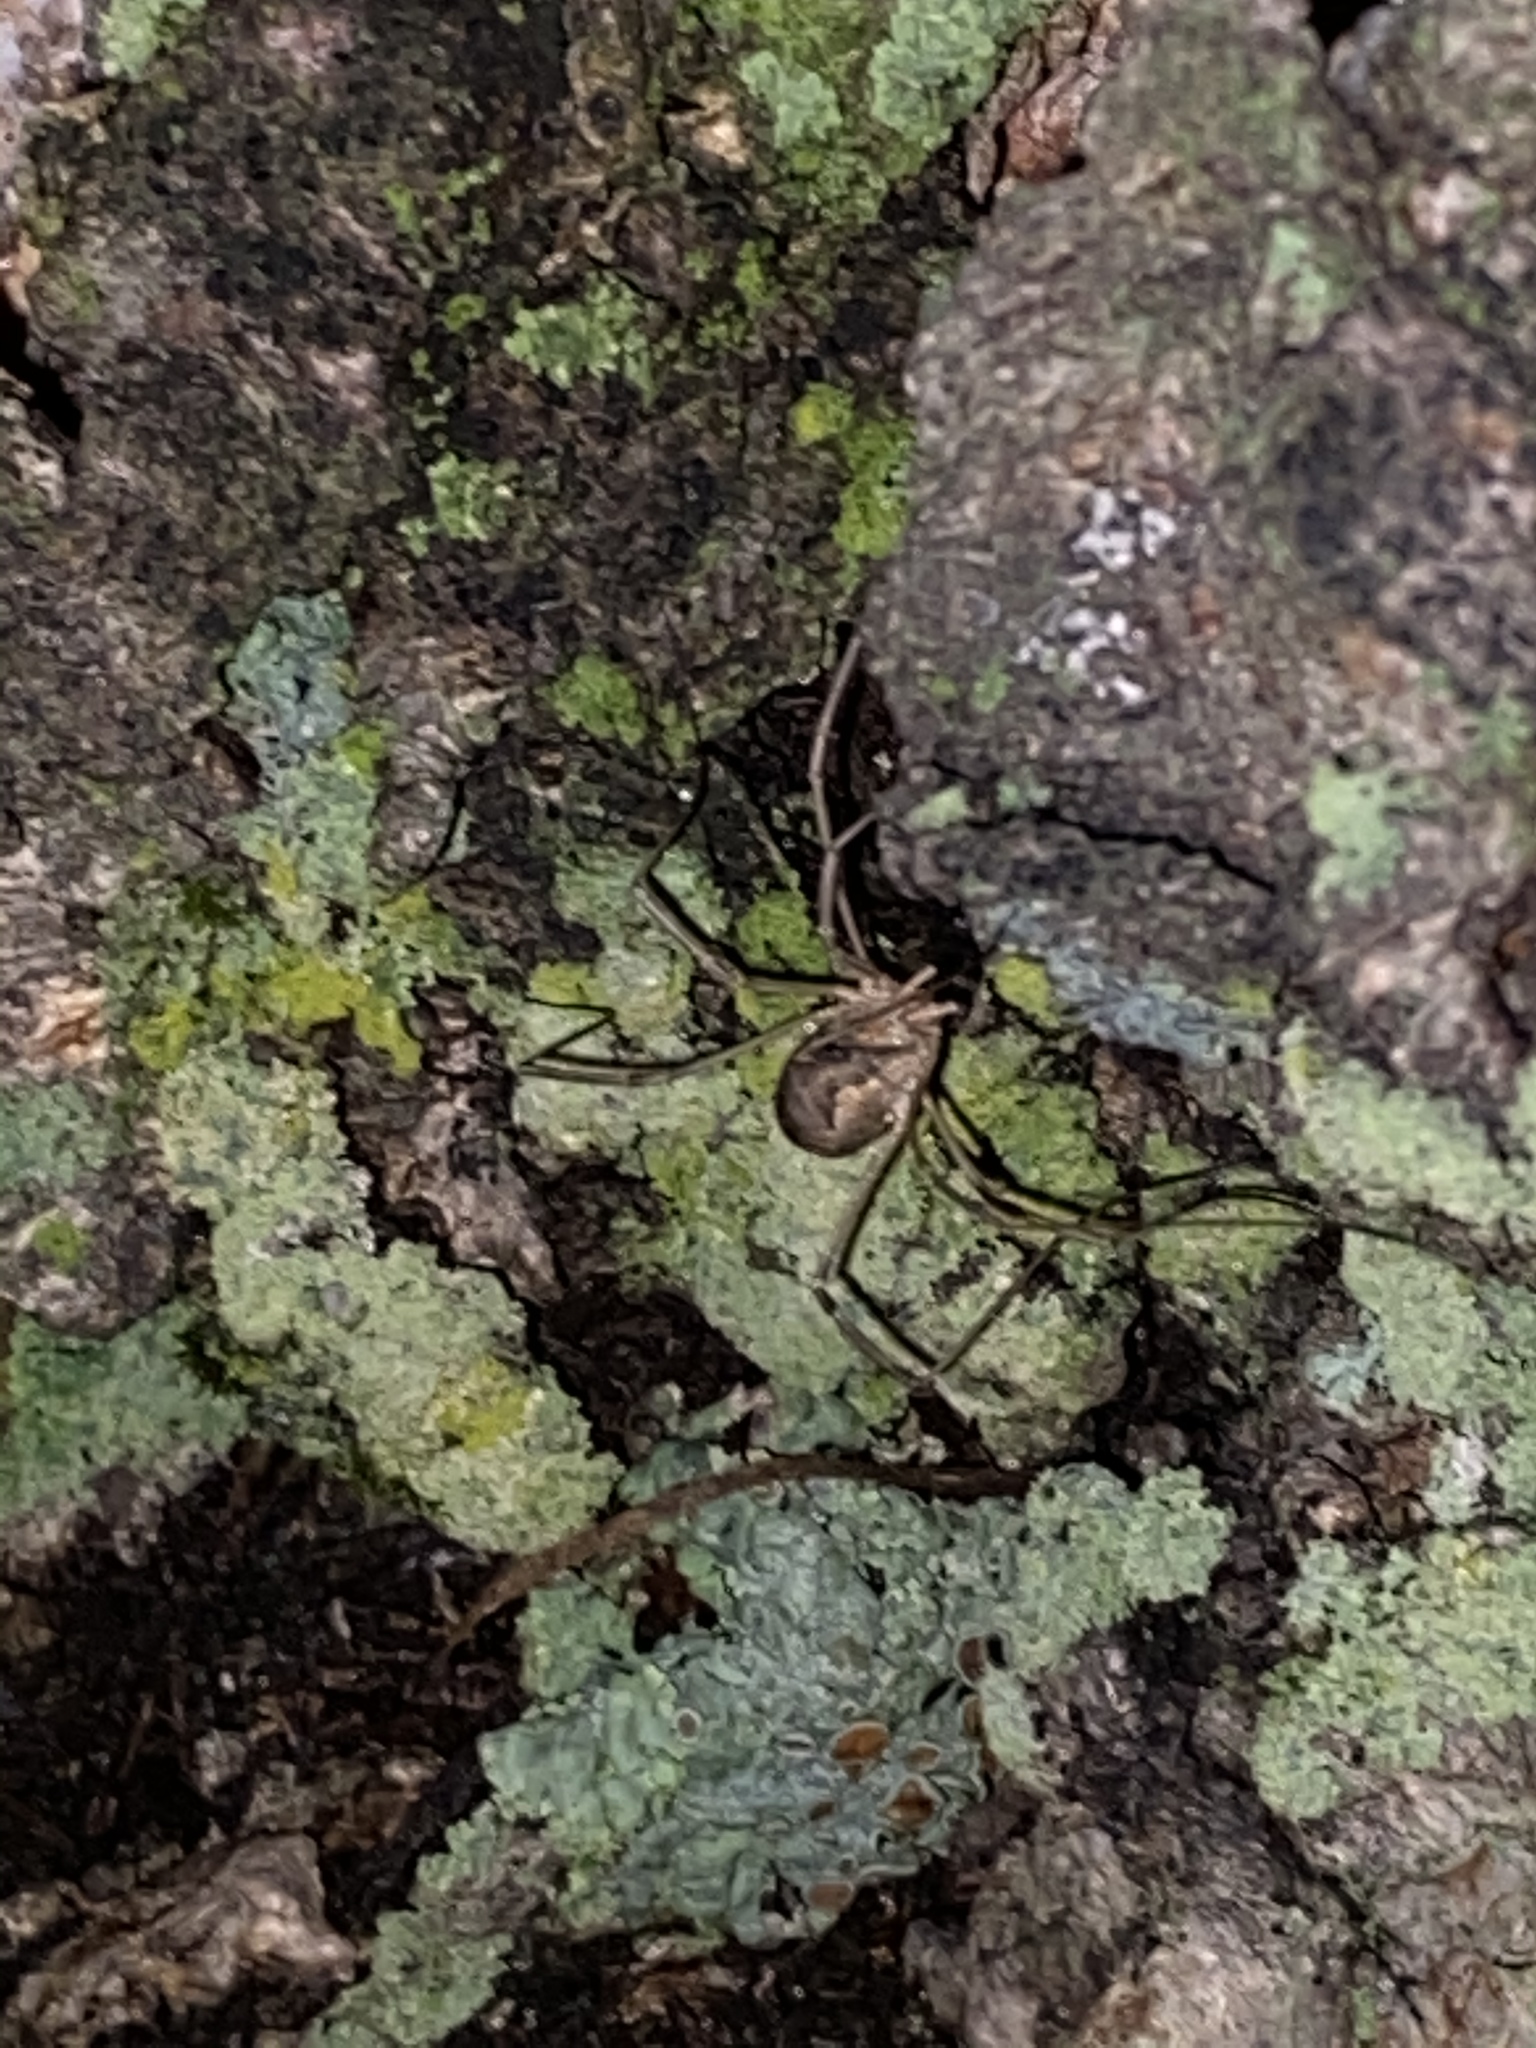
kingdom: Animalia
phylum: Arthropoda
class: Arachnida
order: Opiliones
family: Phalangiidae
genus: Phalangium
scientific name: Phalangium opilio
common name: Daddy longleg
